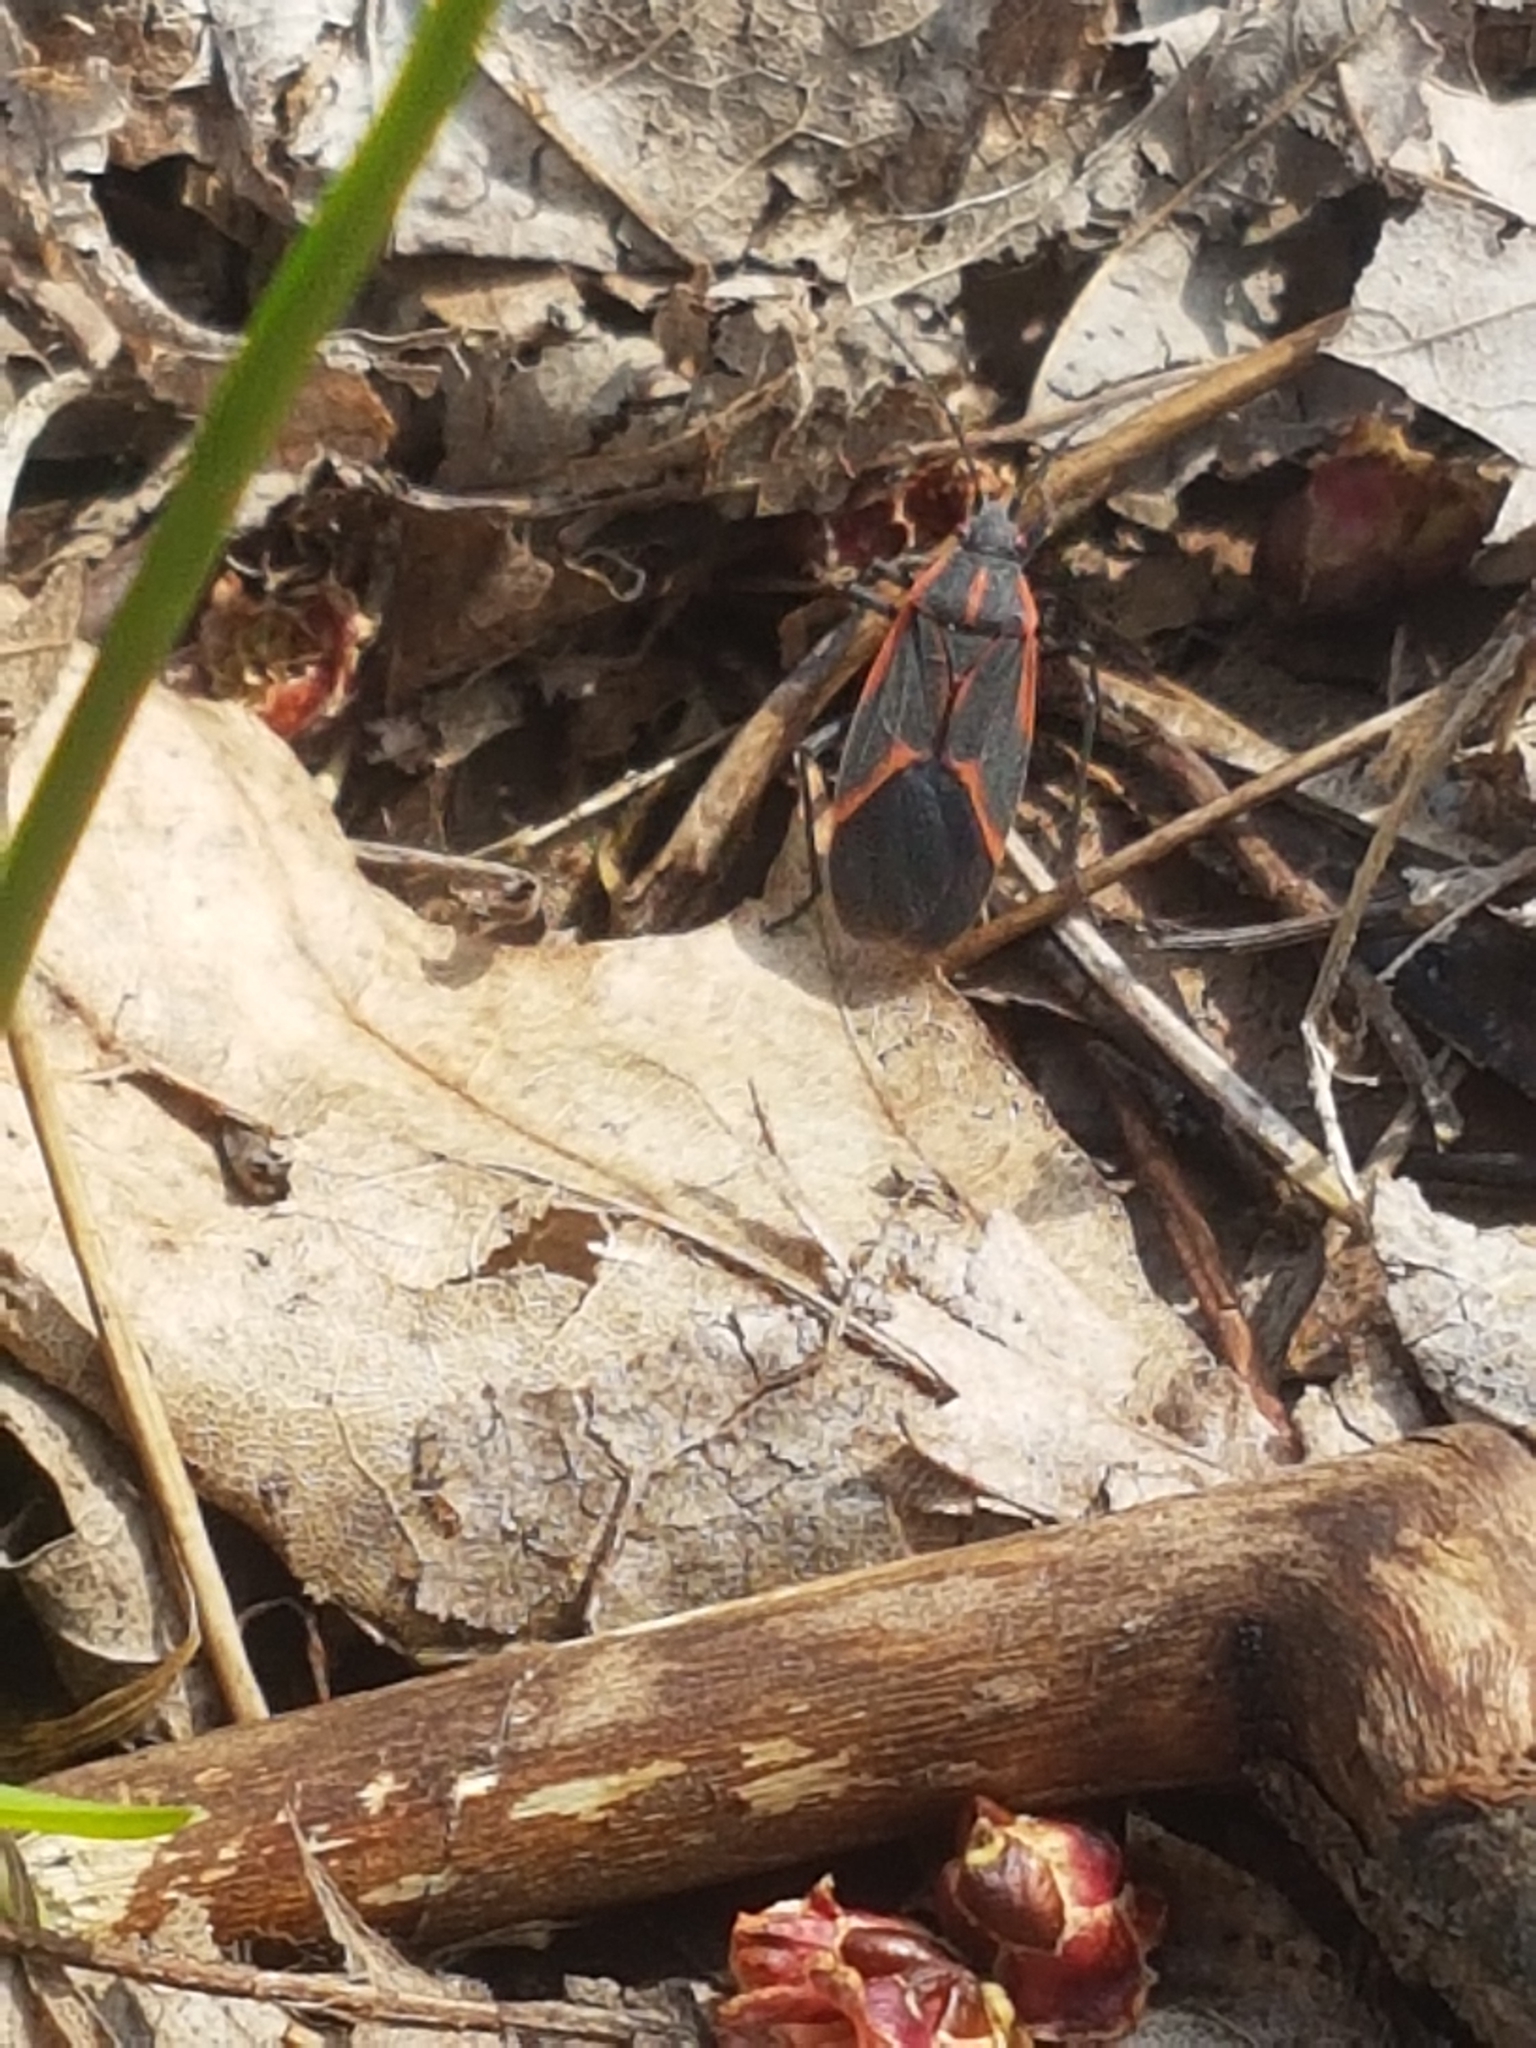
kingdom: Animalia
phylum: Arthropoda
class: Insecta
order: Hemiptera
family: Rhopalidae
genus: Boisea
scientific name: Boisea trivittata
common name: Boxelder bug
